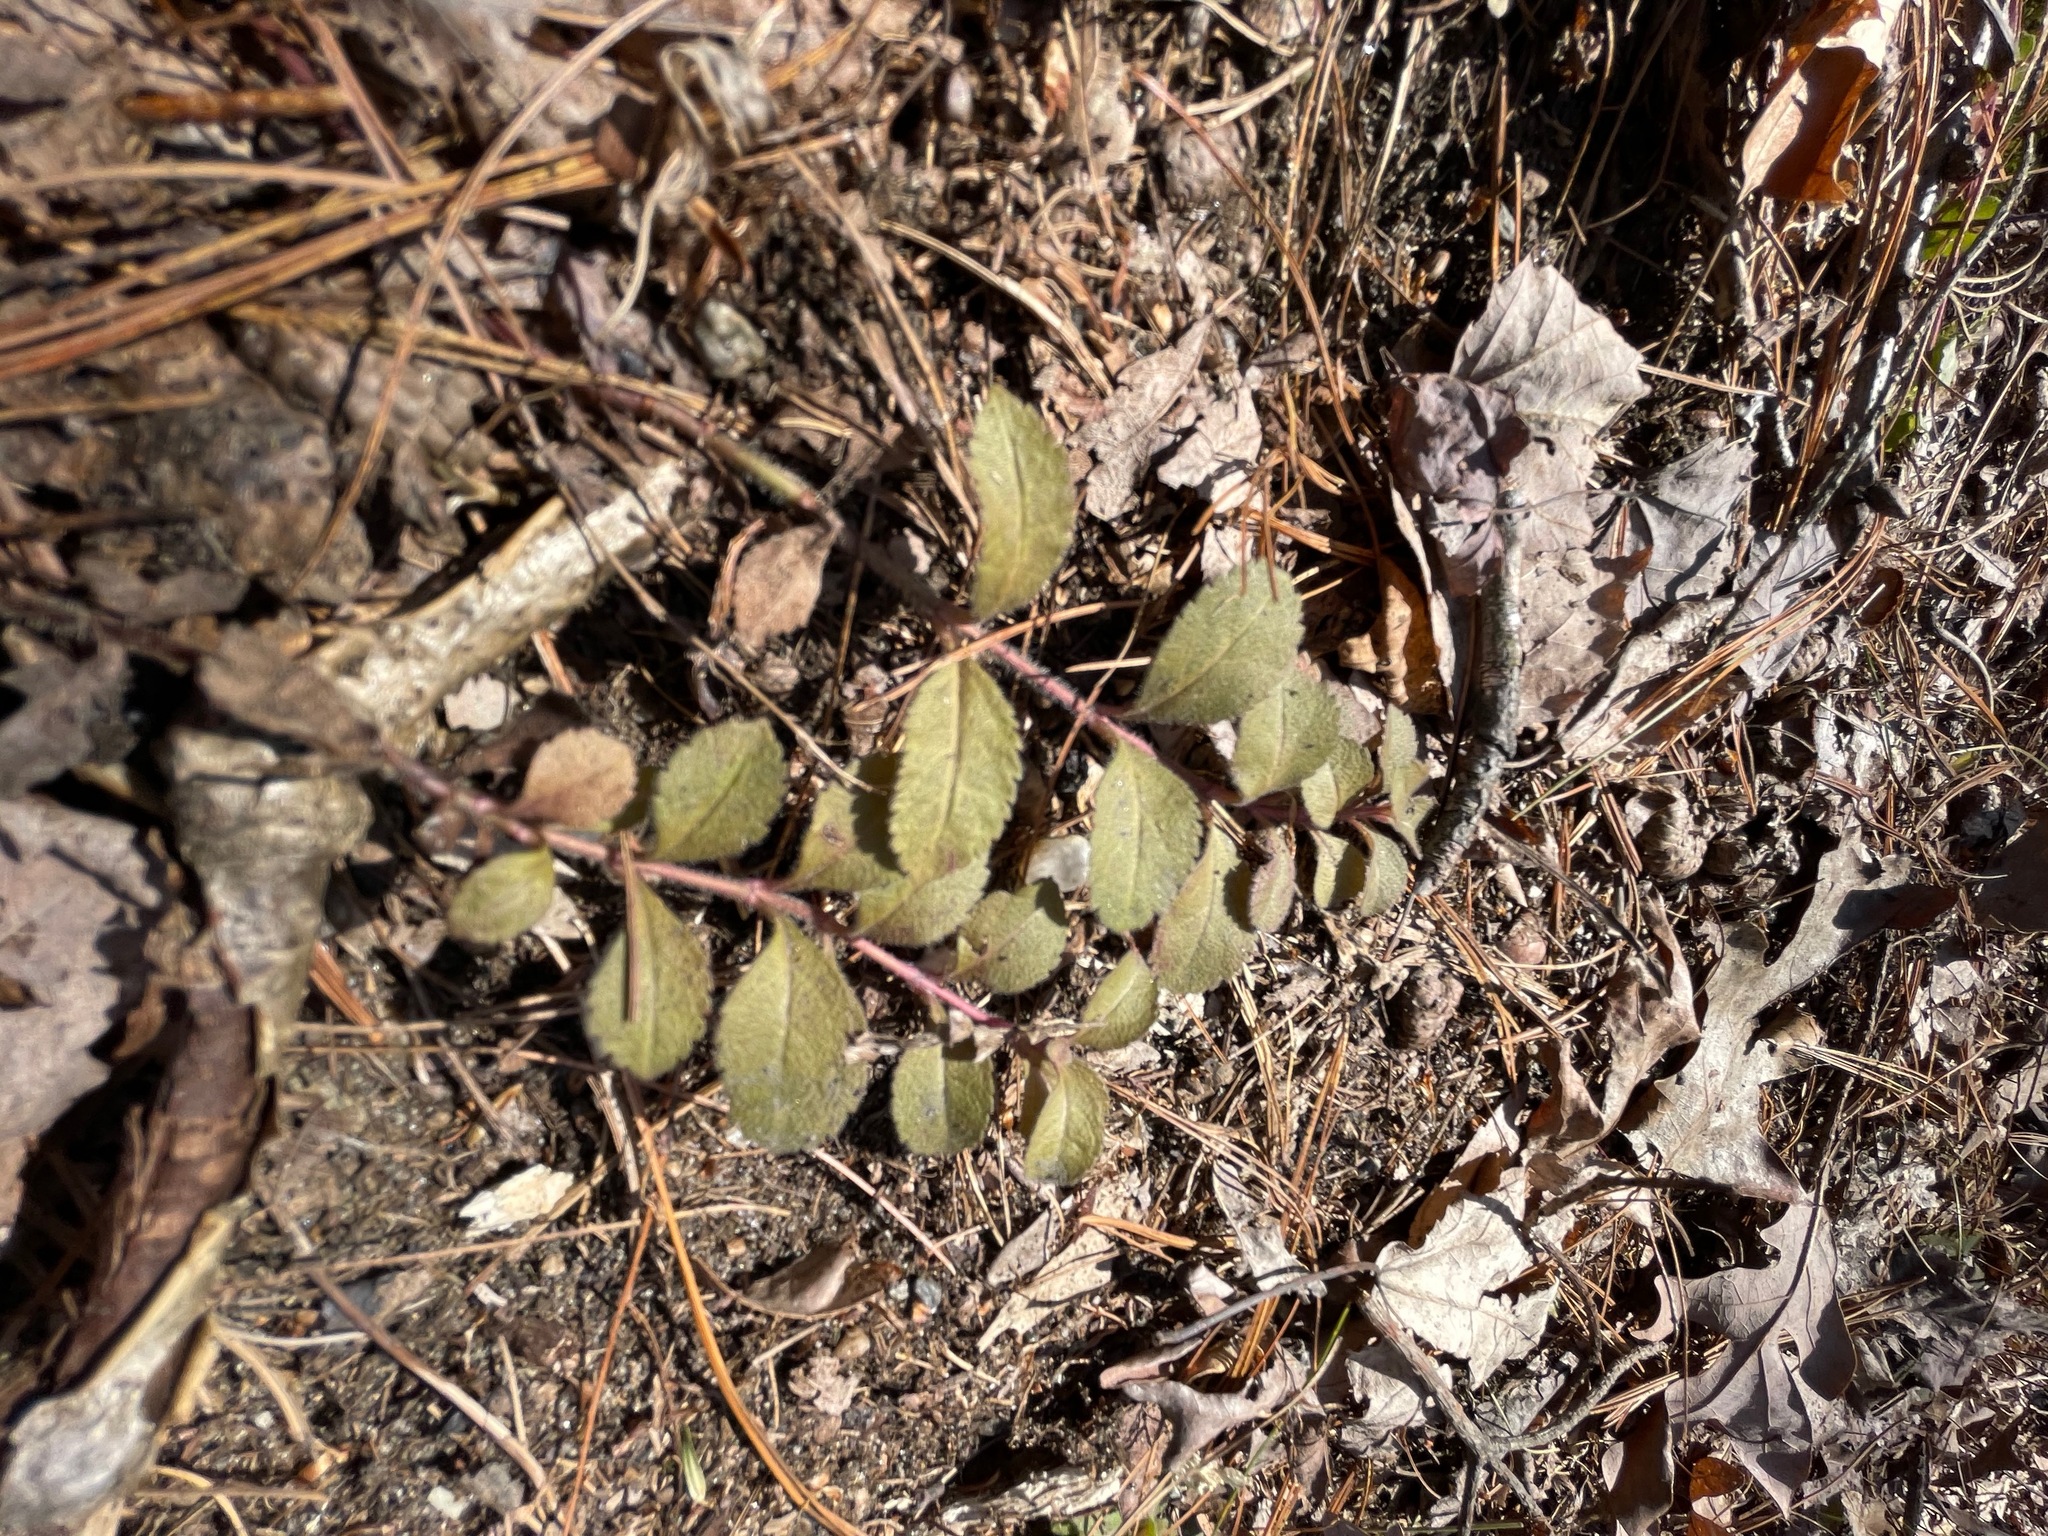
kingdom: Plantae
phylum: Tracheophyta
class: Magnoliopsida
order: Lamiales
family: Plantaginaceae
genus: Veronica
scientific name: Veronica officinalis
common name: Common speedwell
